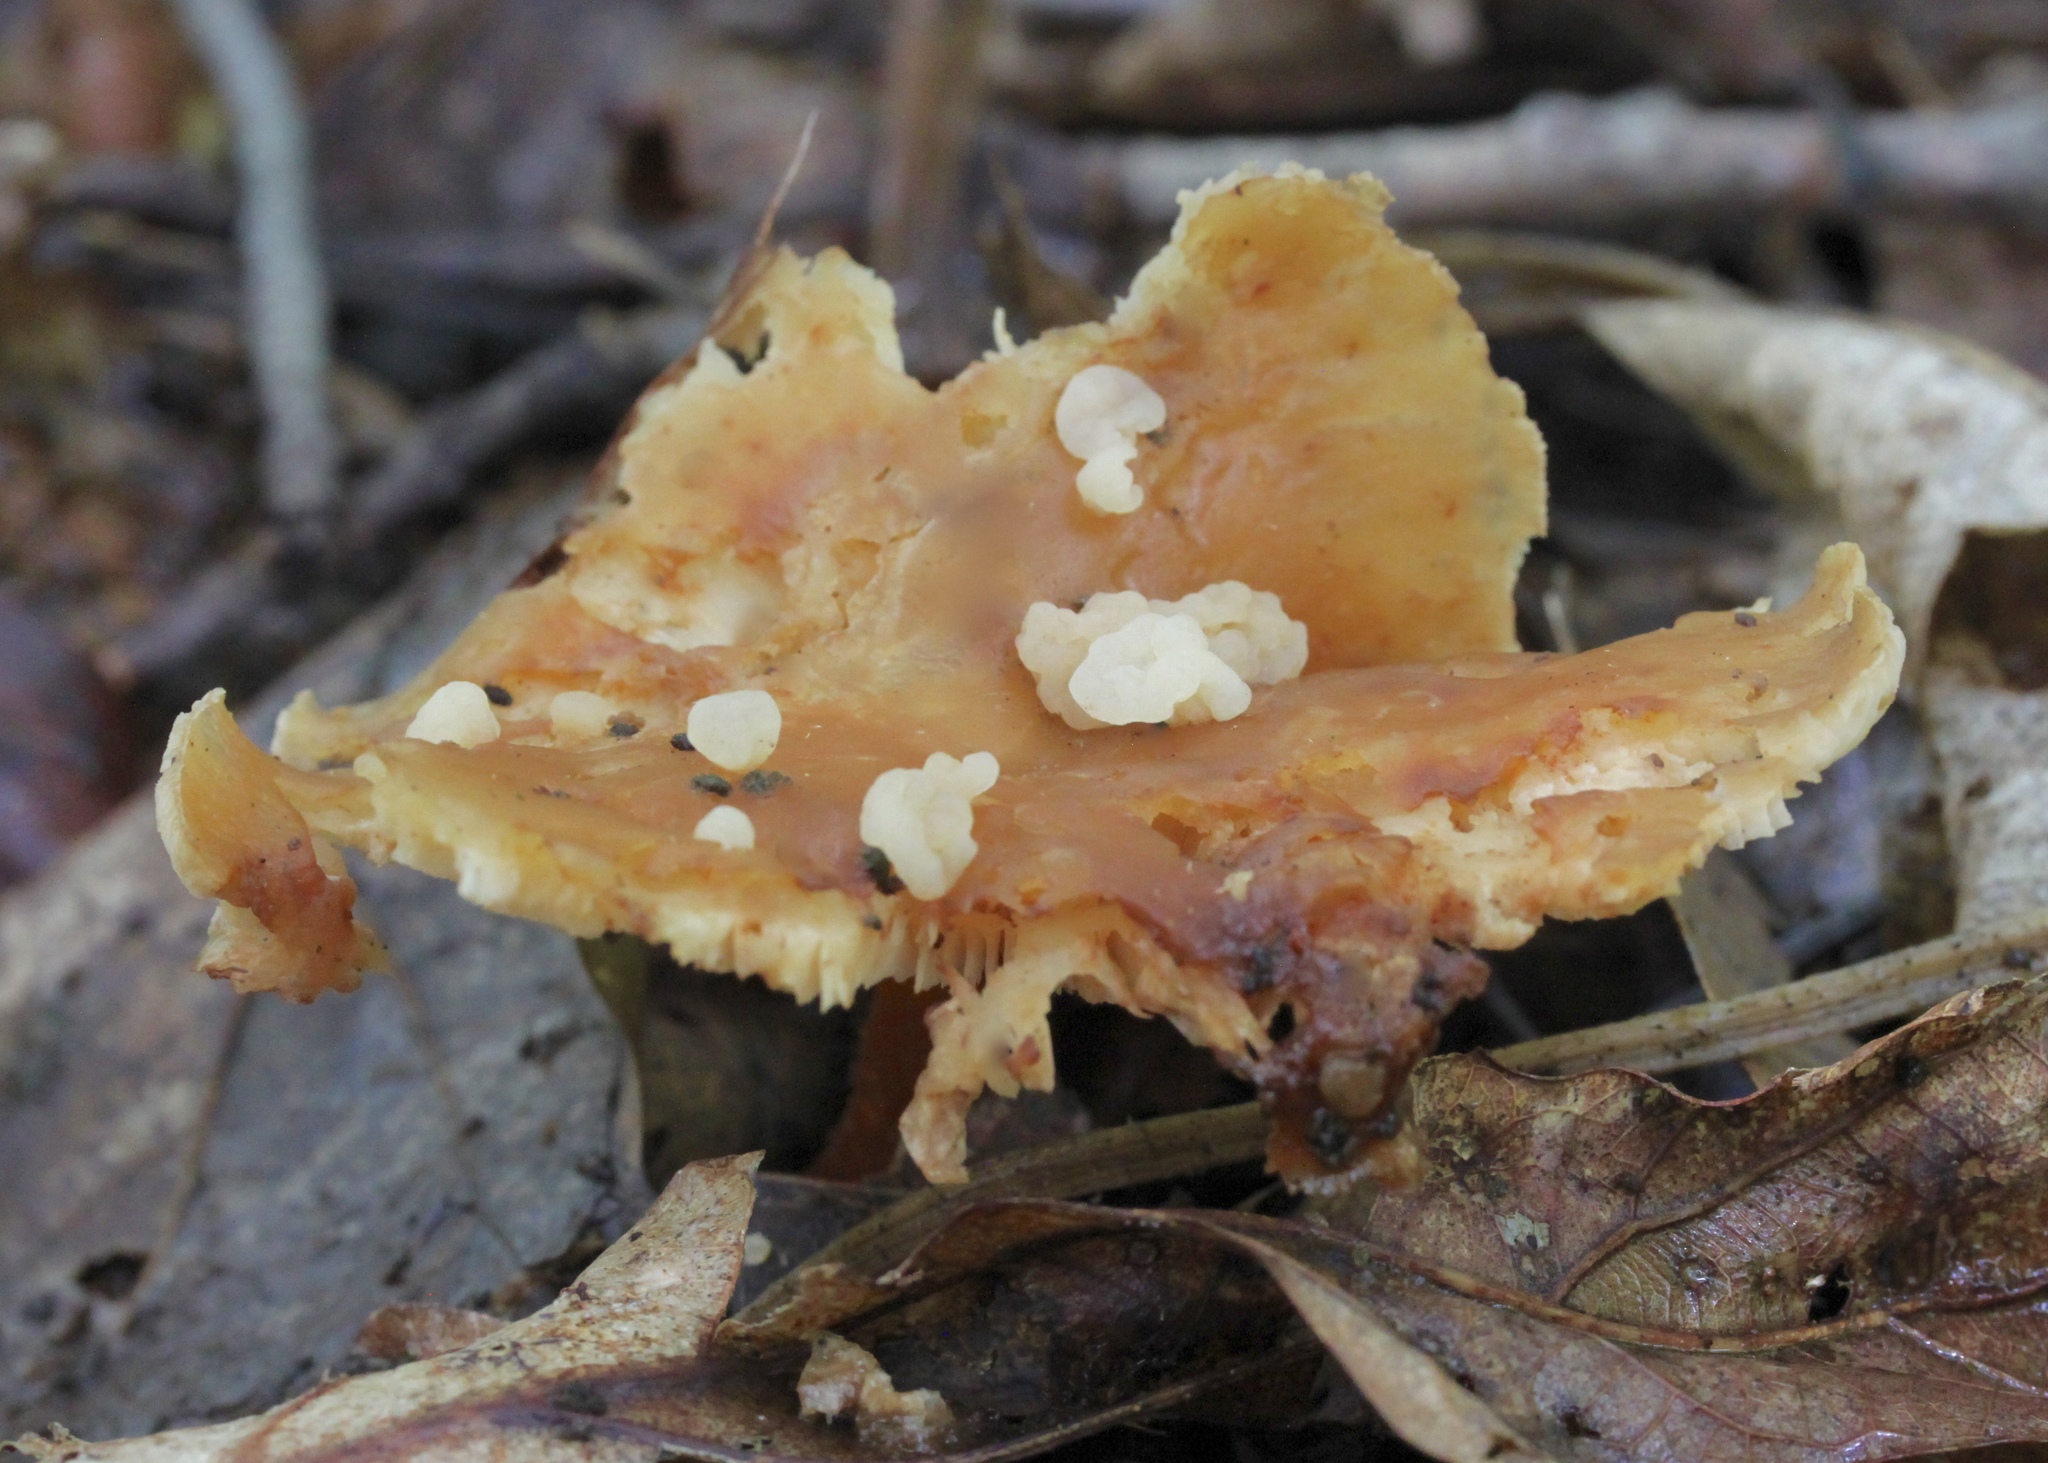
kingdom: Fungi
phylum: Basidiomycota
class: Tremellomycetes
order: Filobasidiales
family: Filobasidiaceae
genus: Syzygospora
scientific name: Syzygospora mycetophila
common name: Collybia clouds
